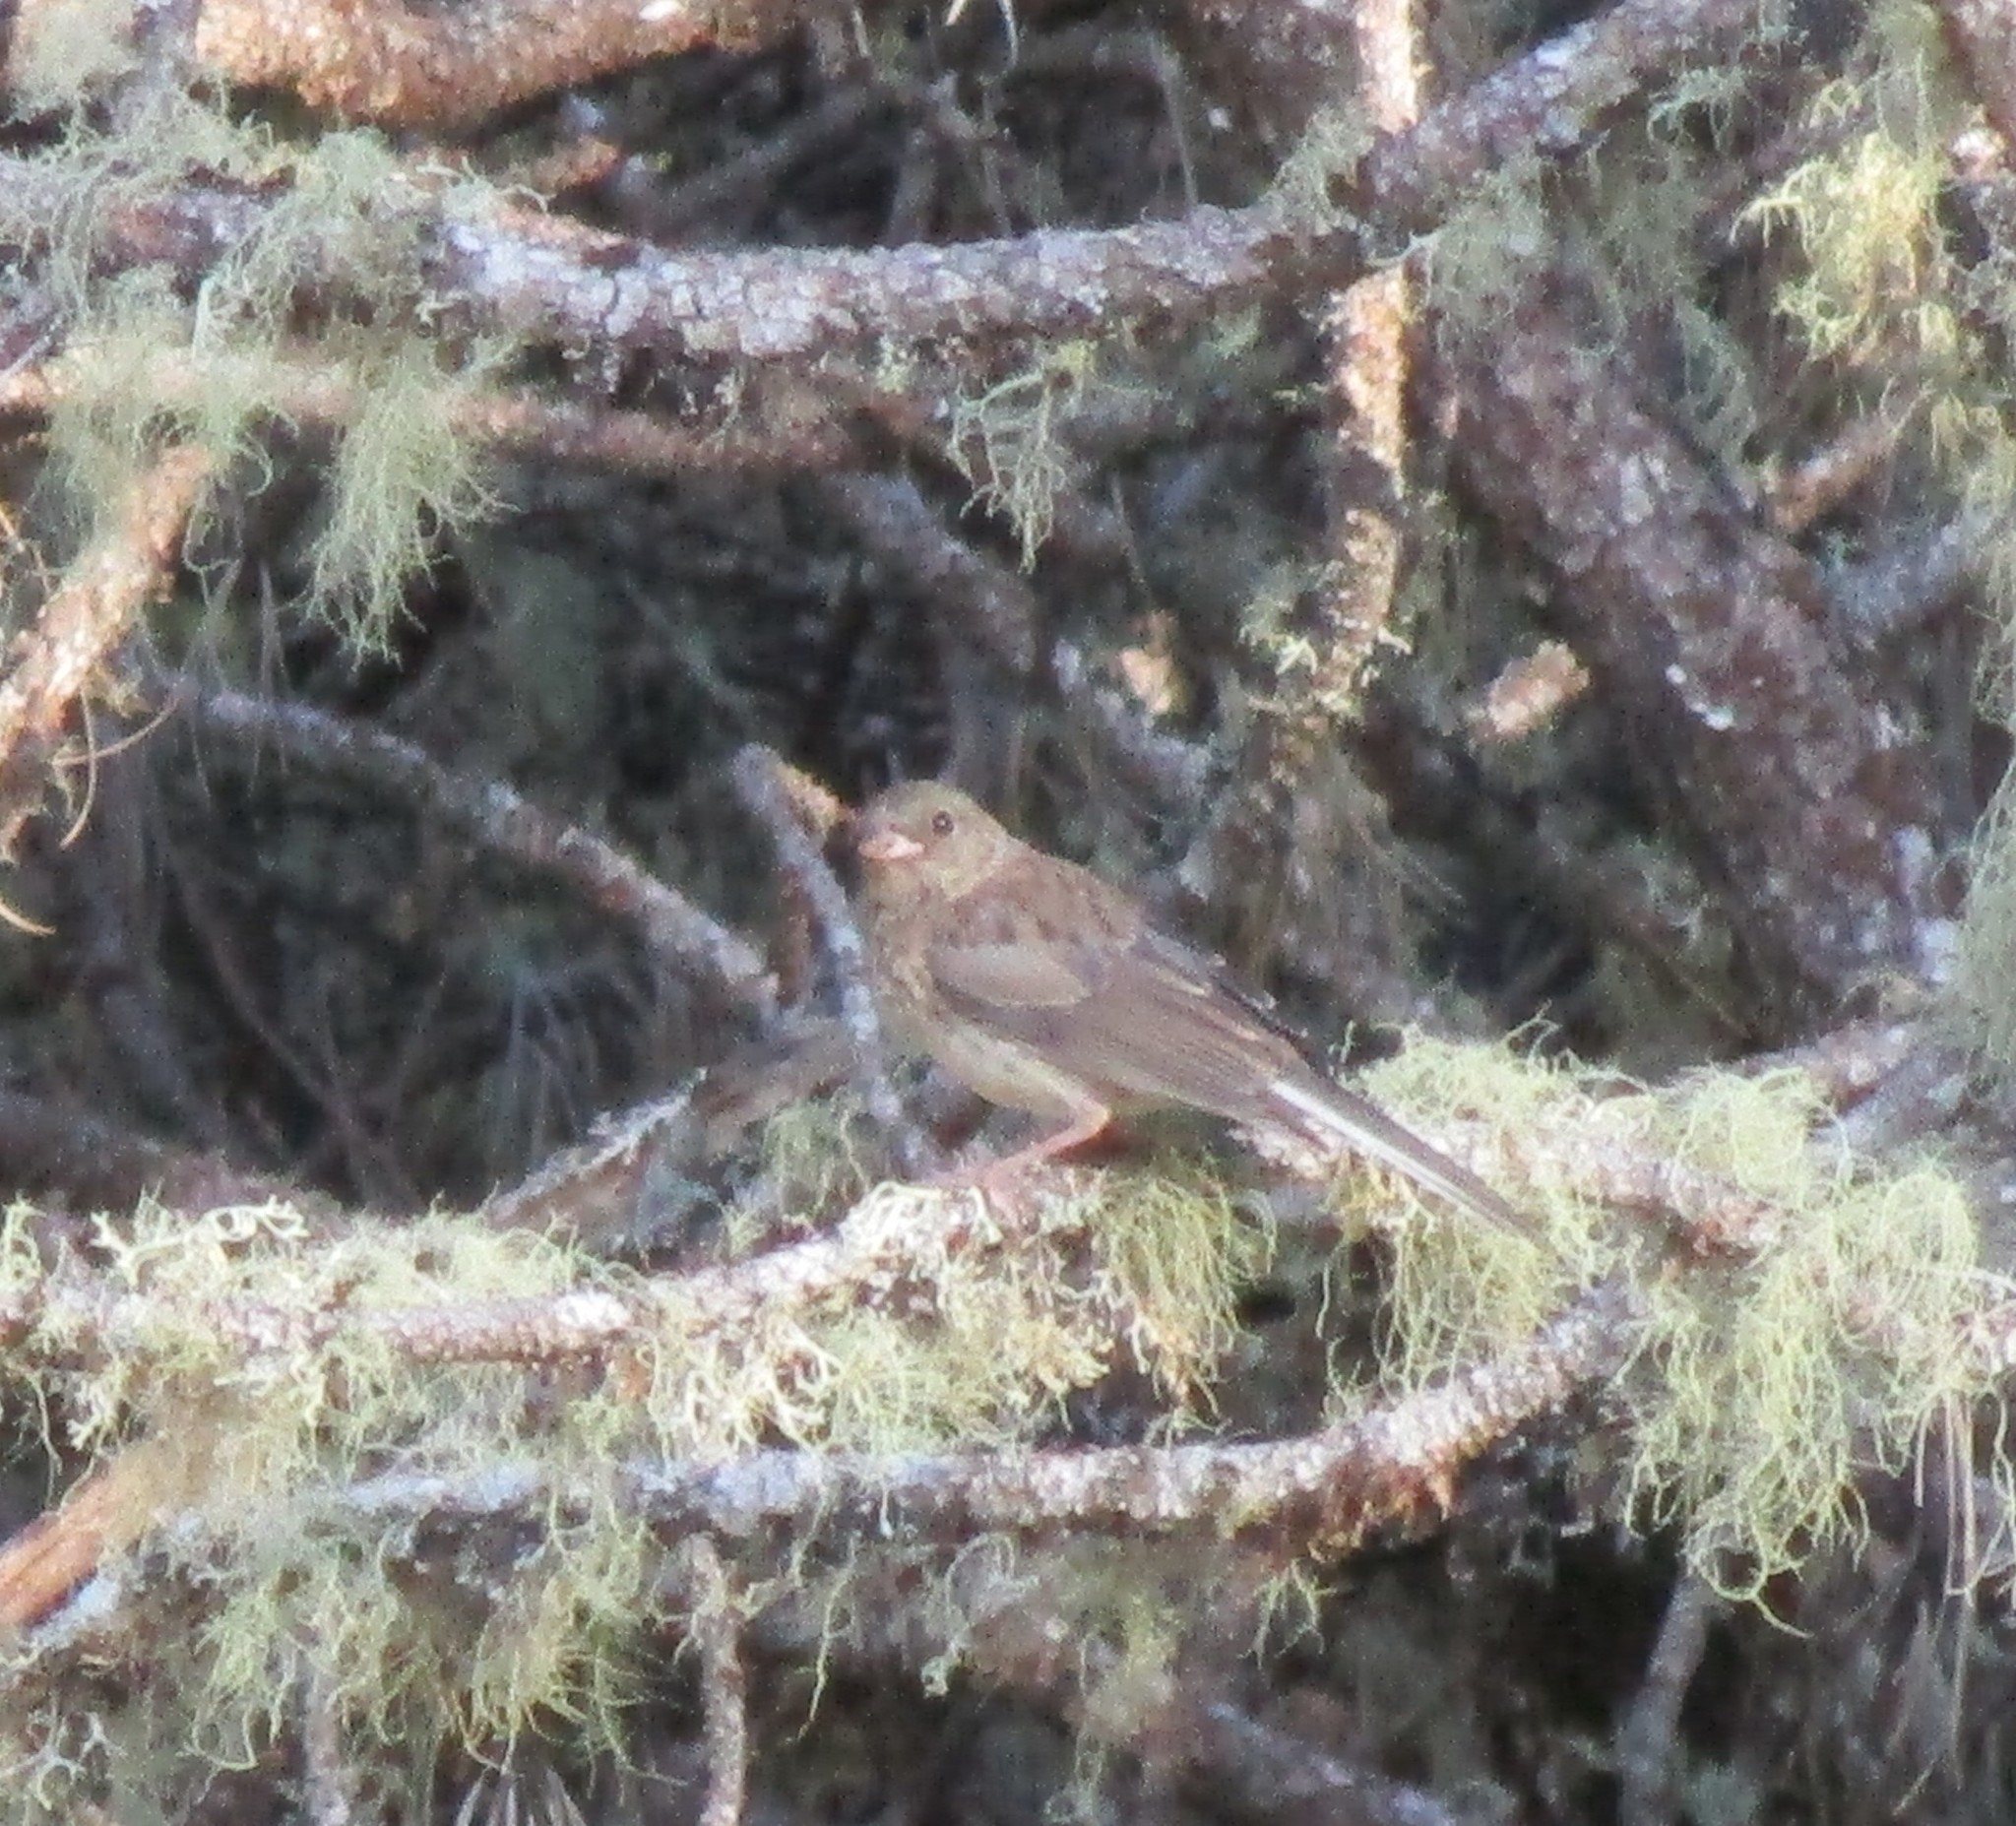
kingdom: Animalia
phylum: Chordata
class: Aves
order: Passeriformes
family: Passerellidae
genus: Junco
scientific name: Junco hyemalis
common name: Dark-eyed junco
